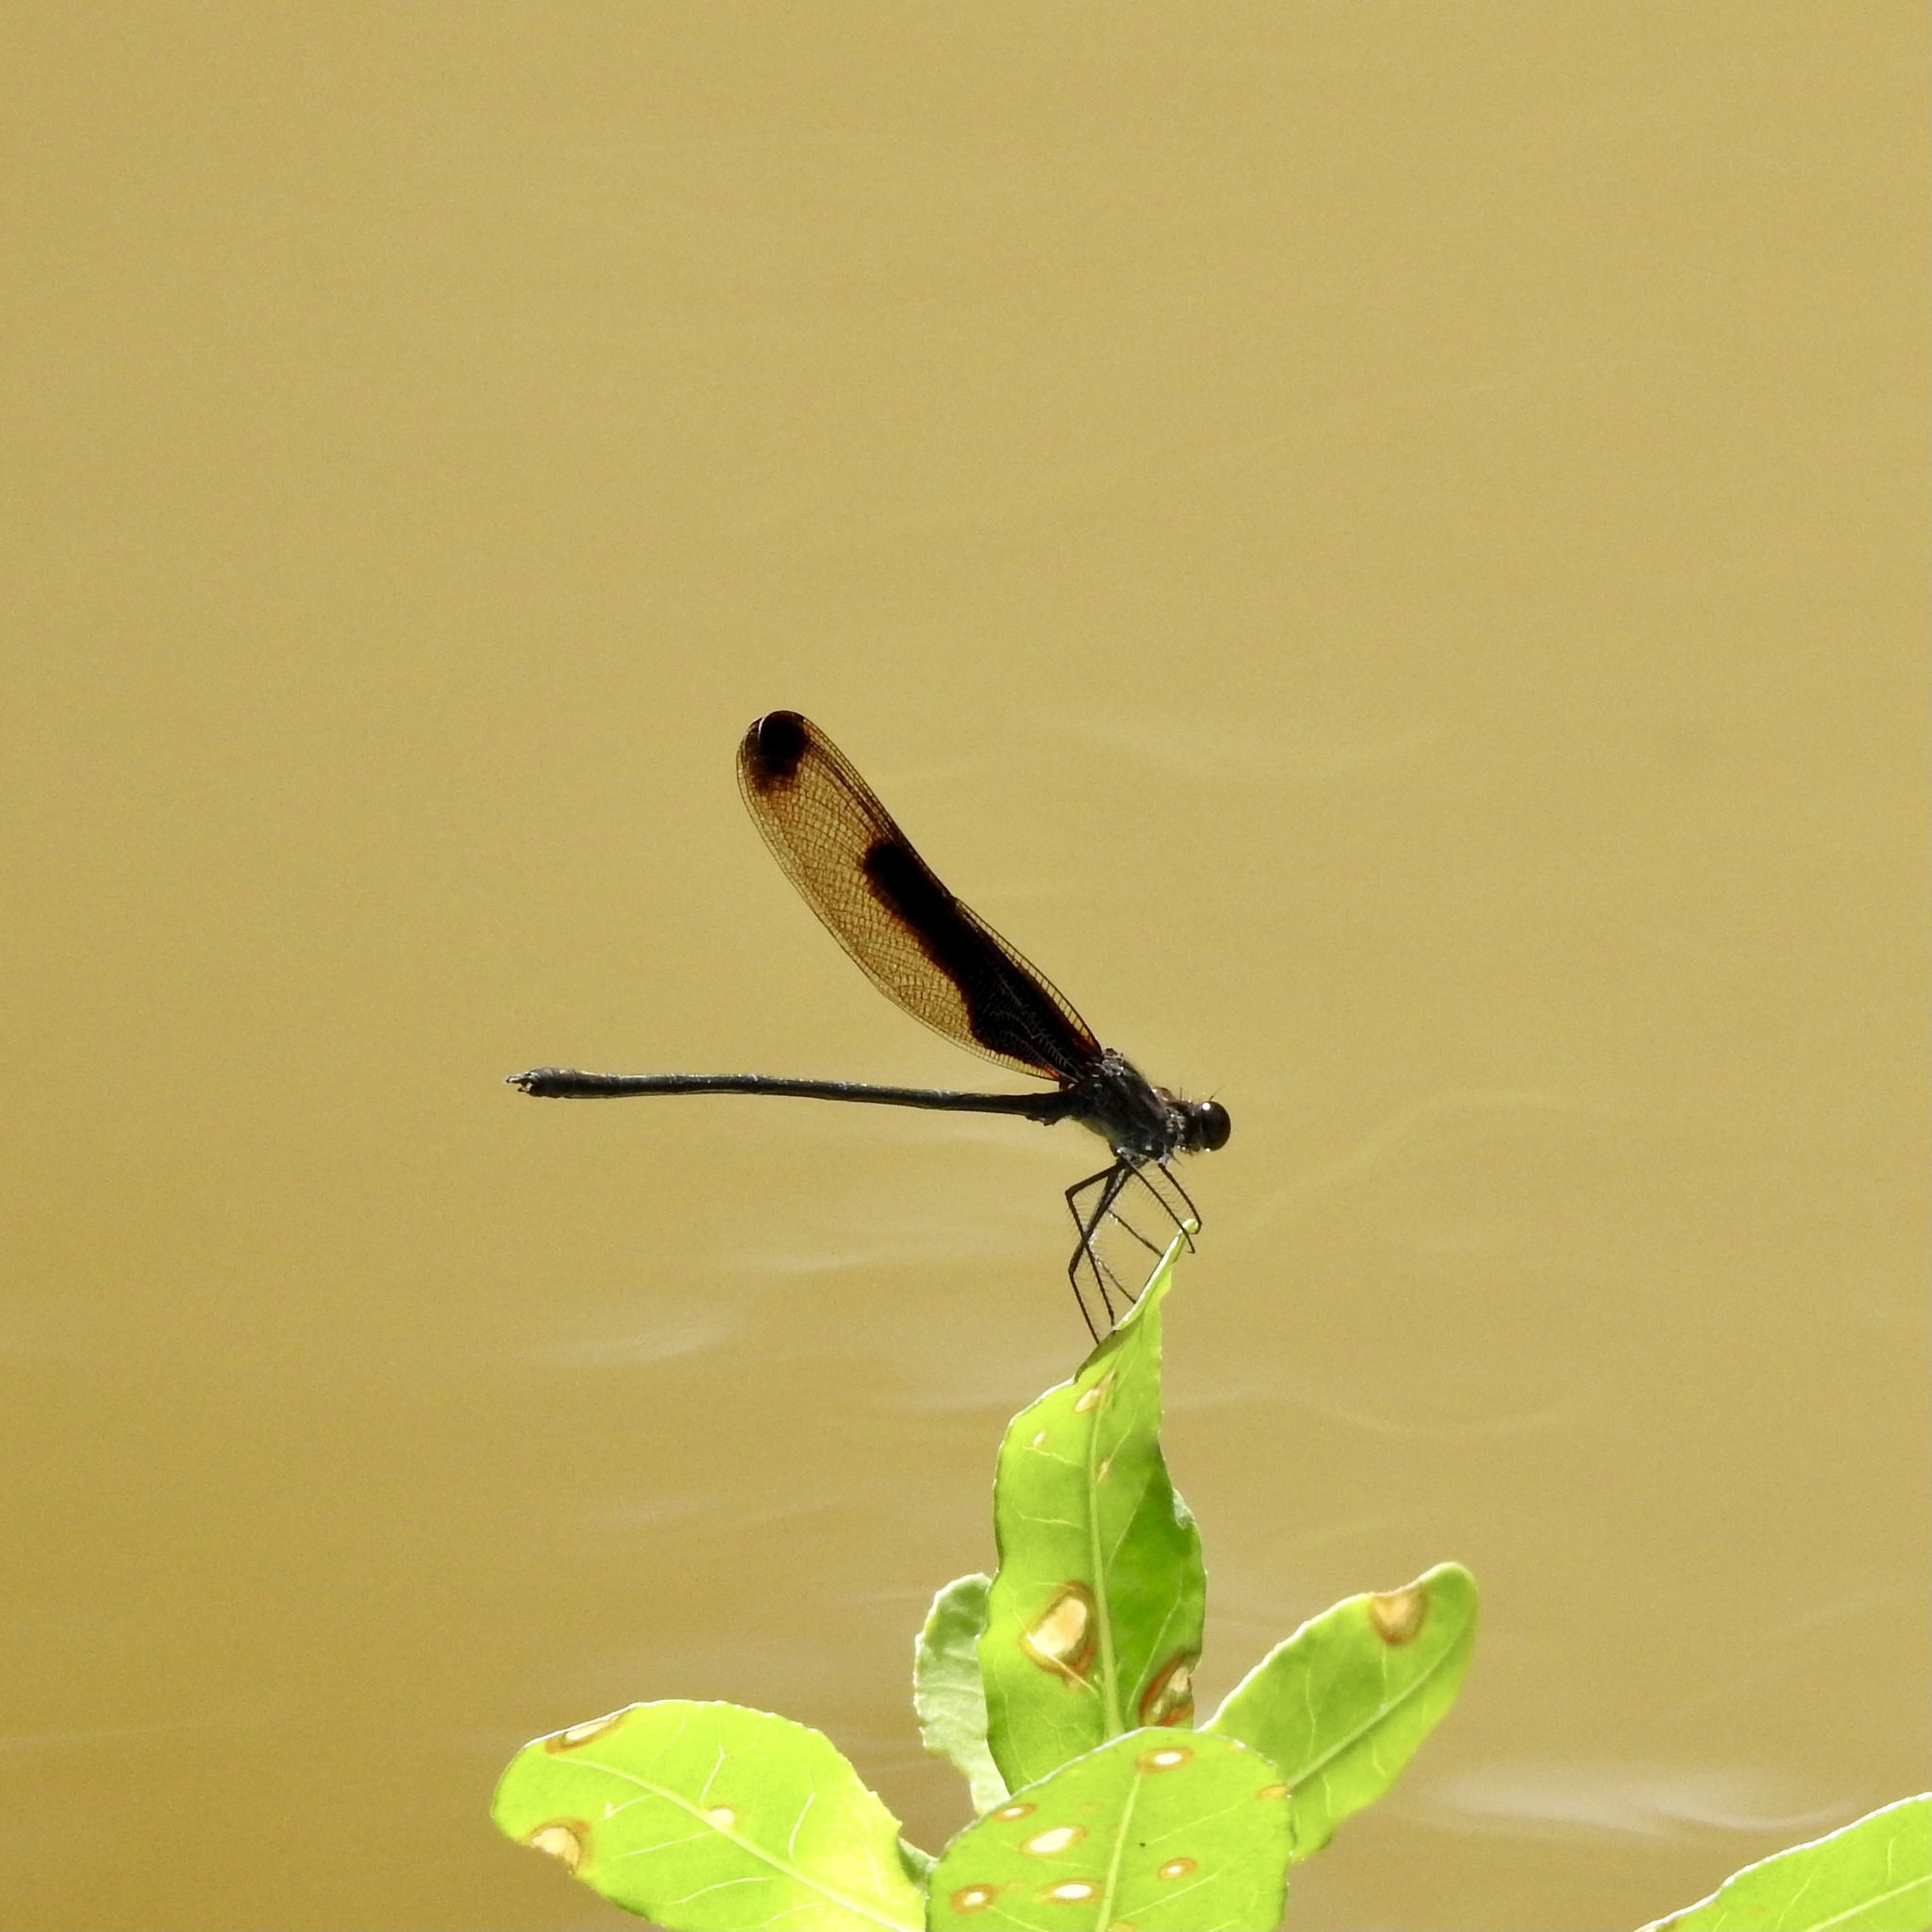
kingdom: Animalia
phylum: Arthropoda
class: Insecta
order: Odonata
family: Calopterygidae
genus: Hetaerina
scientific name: Hetaerina titia
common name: Smoky rubyspot
